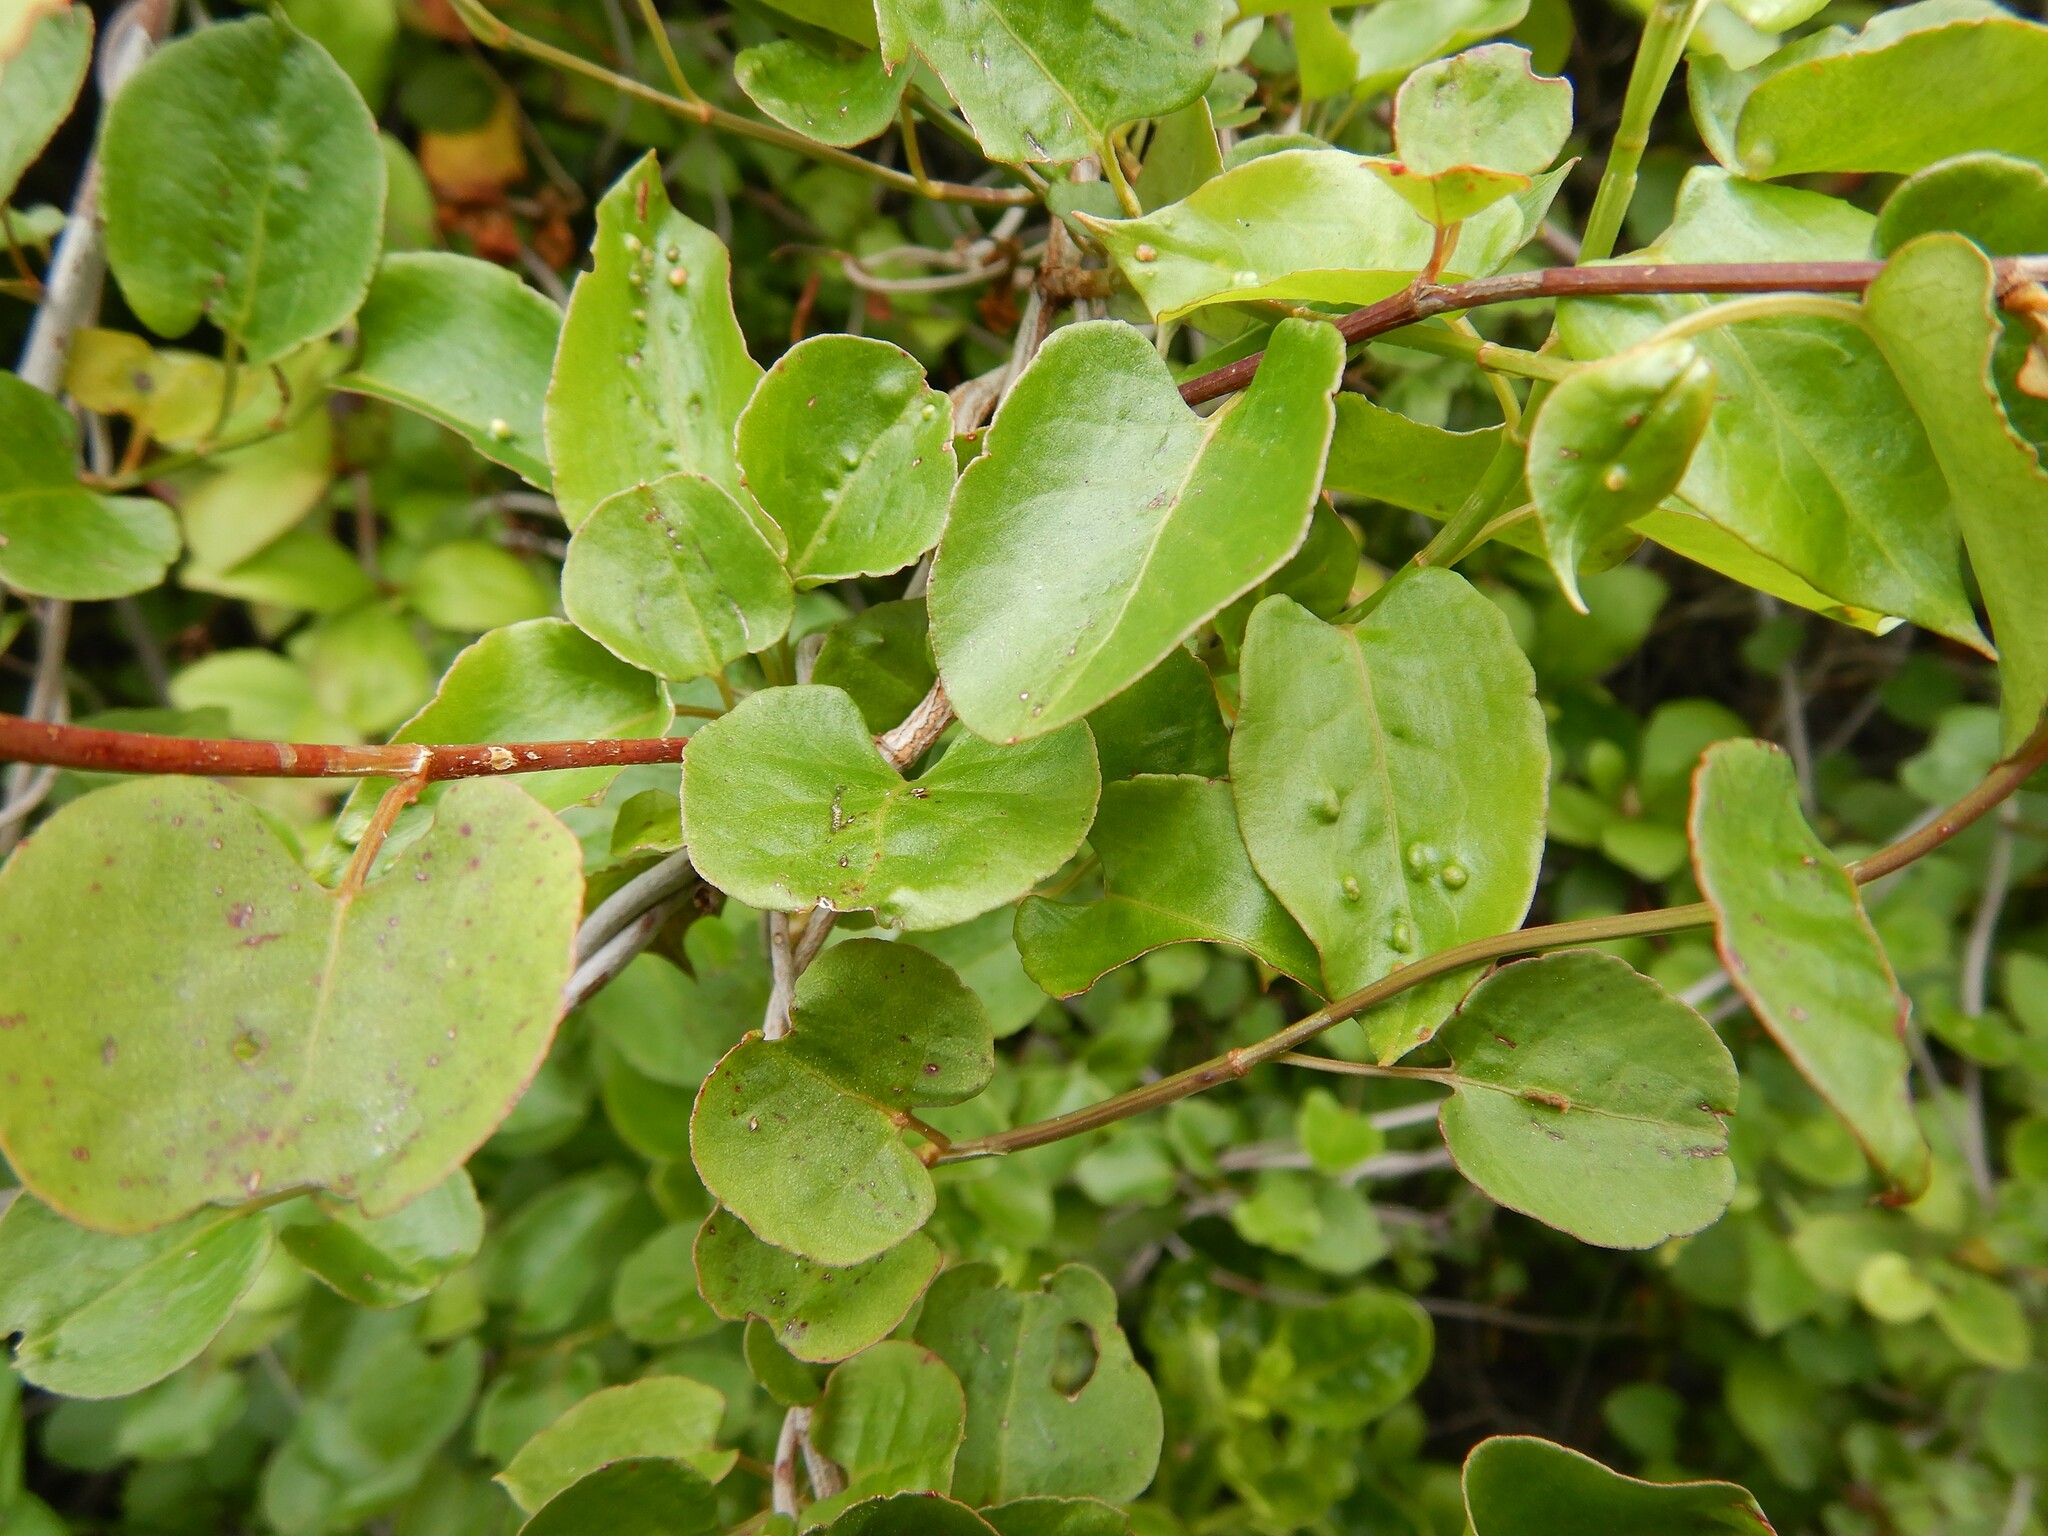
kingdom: Plantae
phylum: Tracheophyta
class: Magnoliopsida
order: Caryophyllales
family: Polygonaceae
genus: Muehlenbeckia
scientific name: Muehlenbeckia australis
